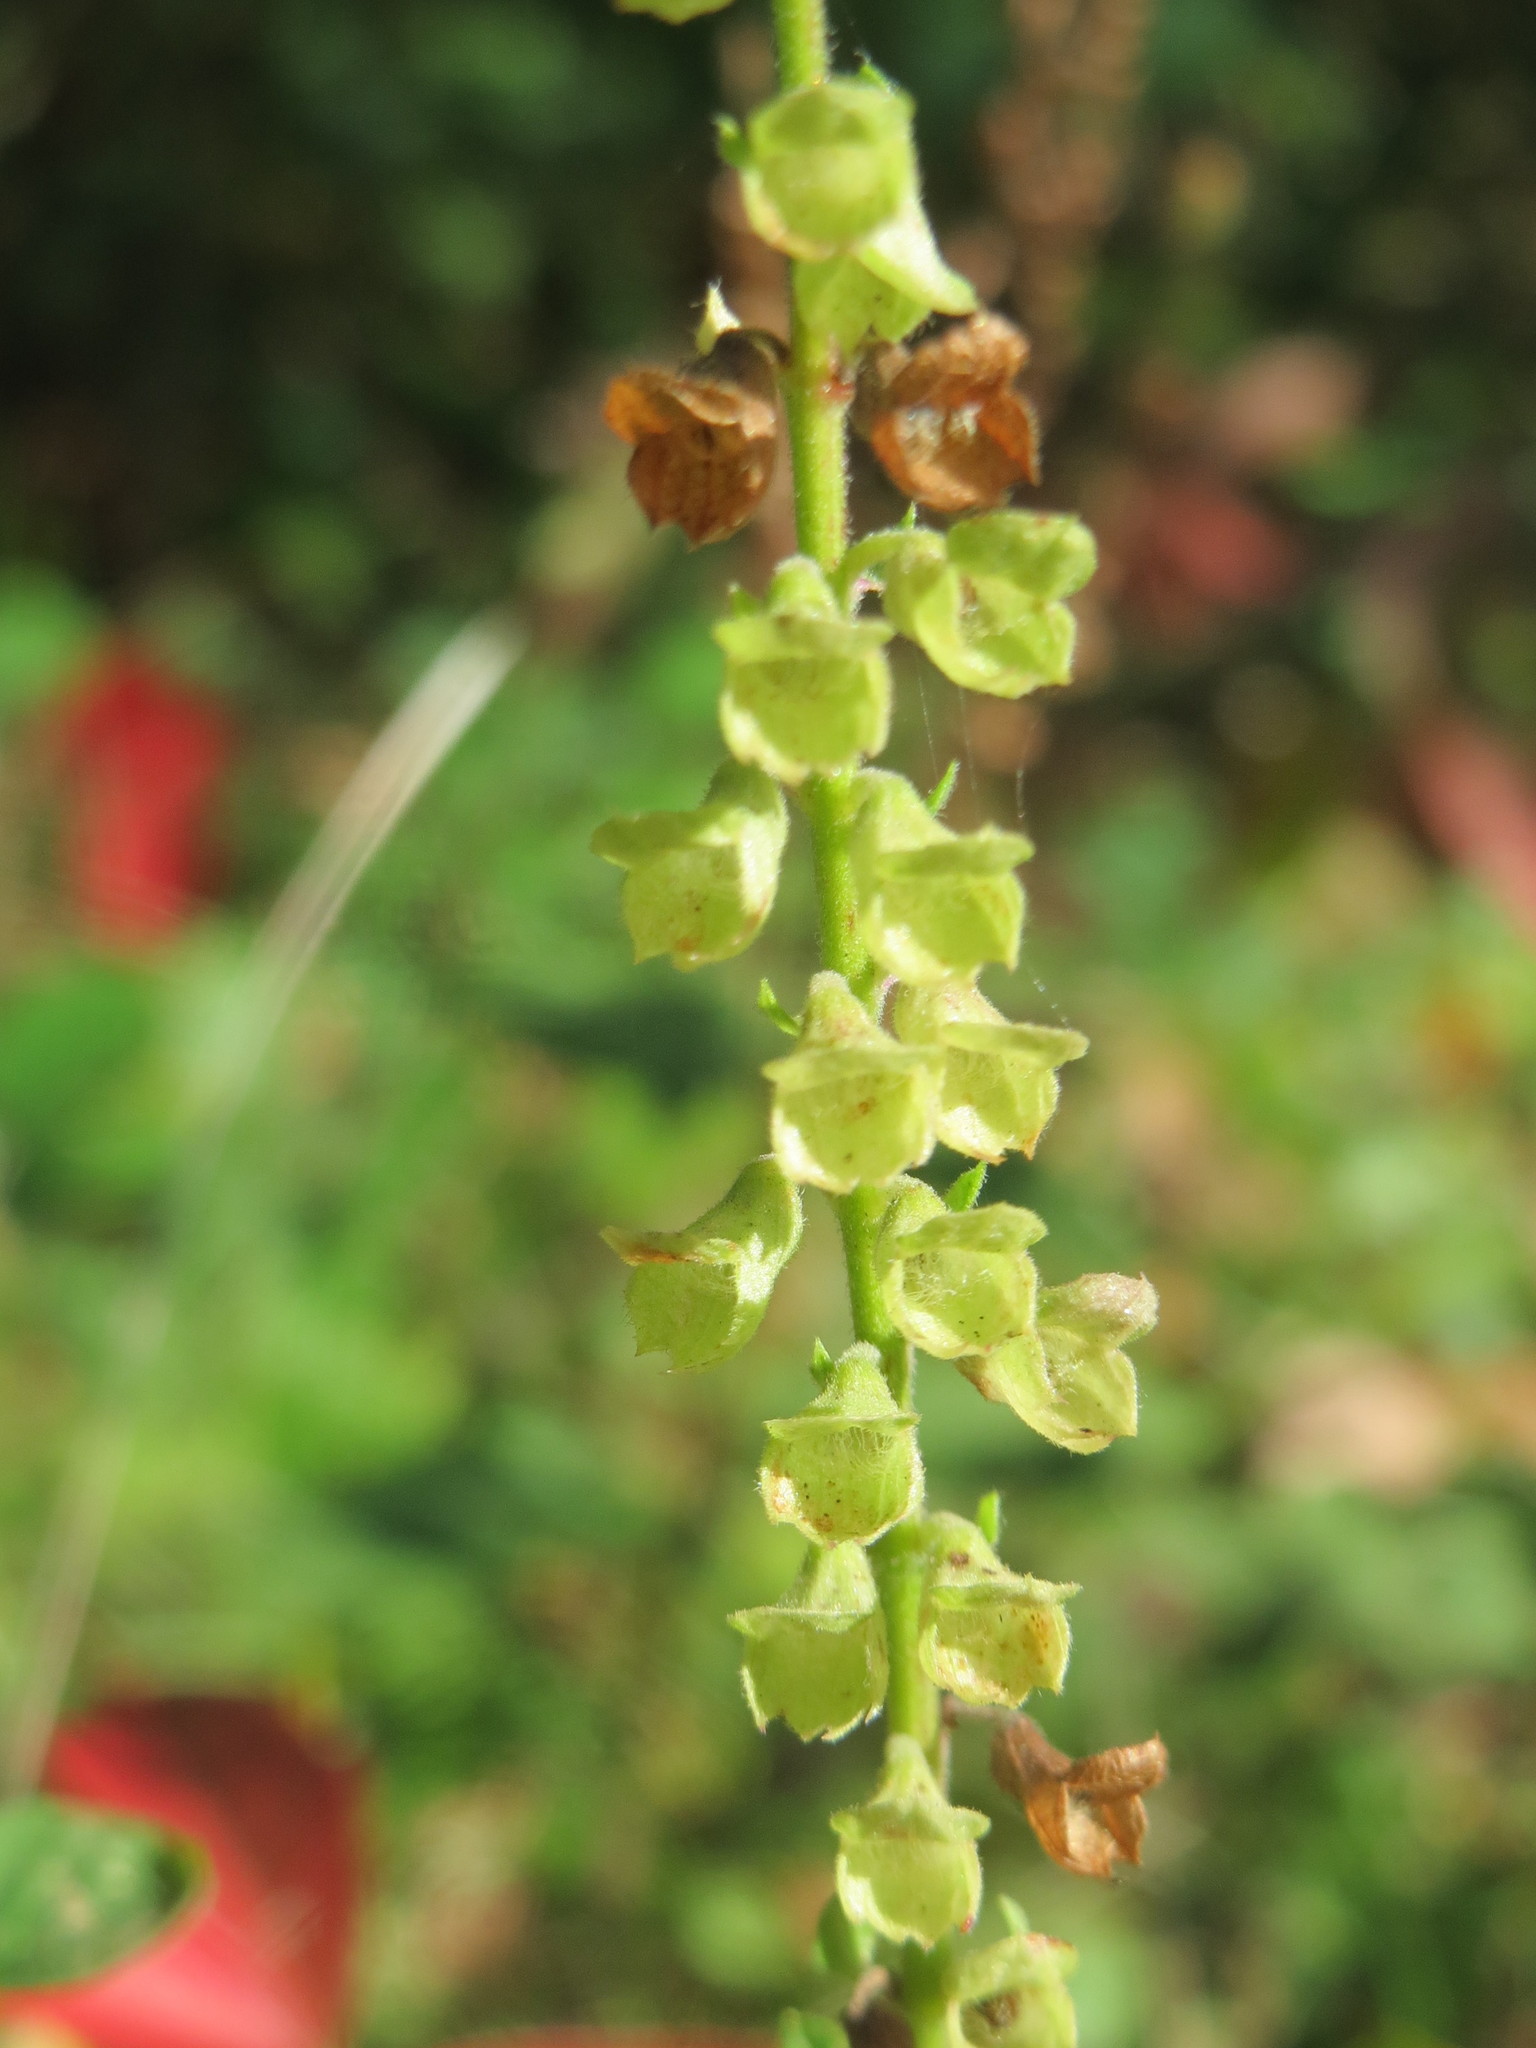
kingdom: Plantae
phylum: Tracheophyta
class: Magnoliopsida
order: Lamiales
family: Lamiaceae
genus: Teucrium
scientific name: Teucrium scorodonia
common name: Woodland germander
